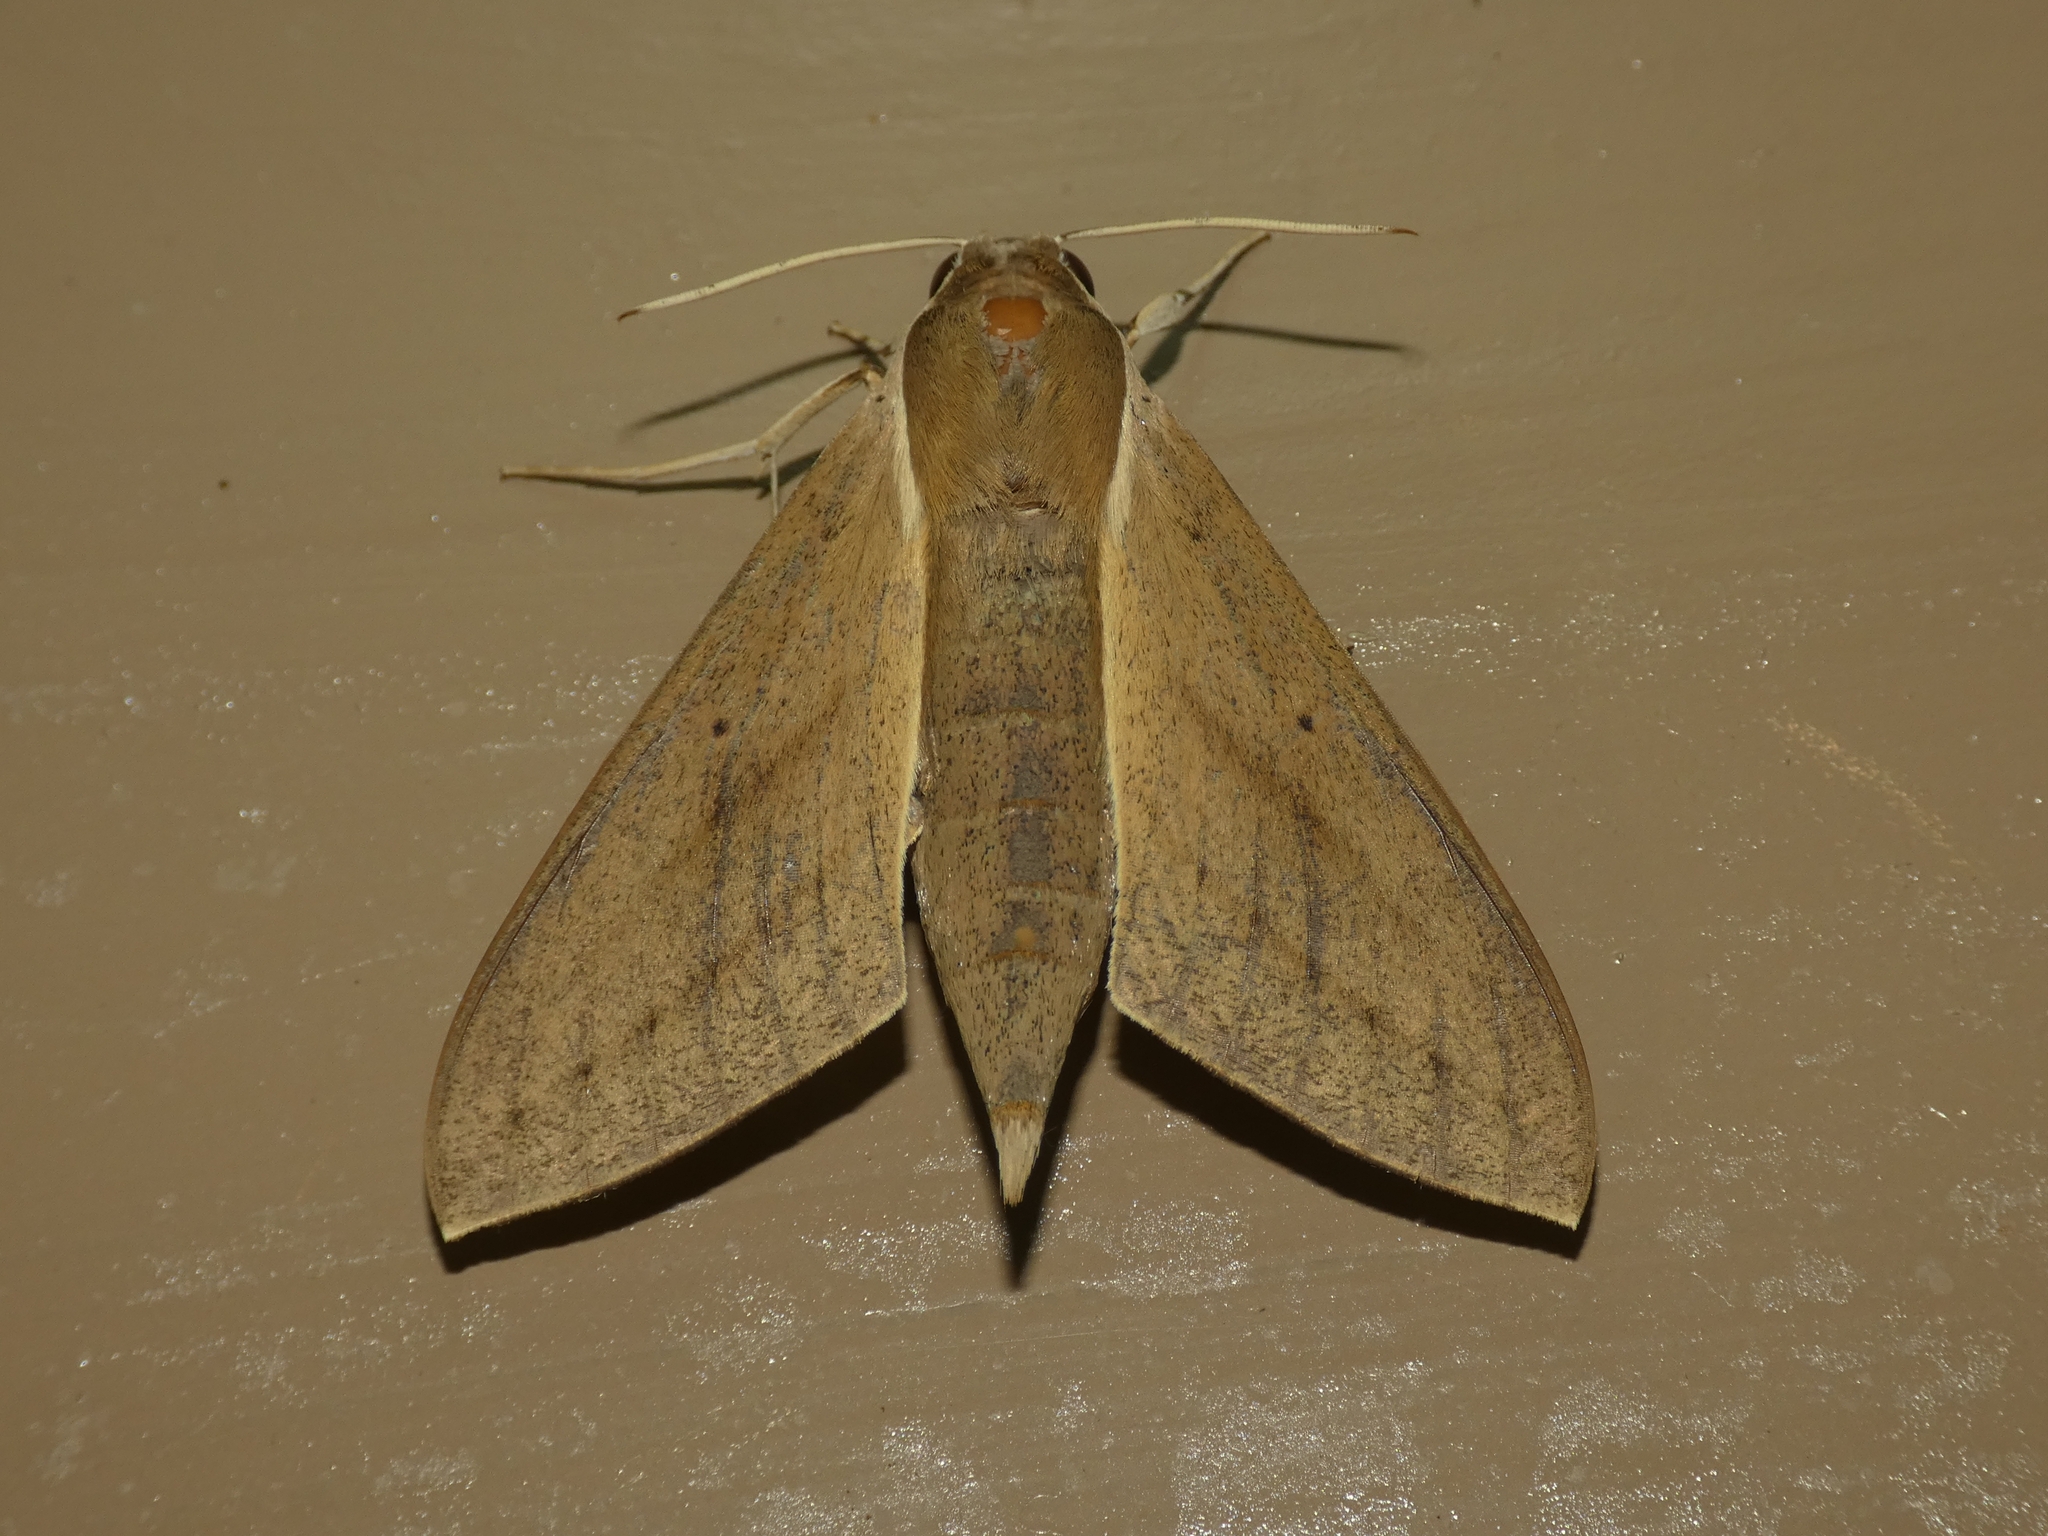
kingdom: Animalia
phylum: Arthropoda
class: Insecta
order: Lepidoptera
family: Sphingidae
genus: Theretra
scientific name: Theretra latreillii
